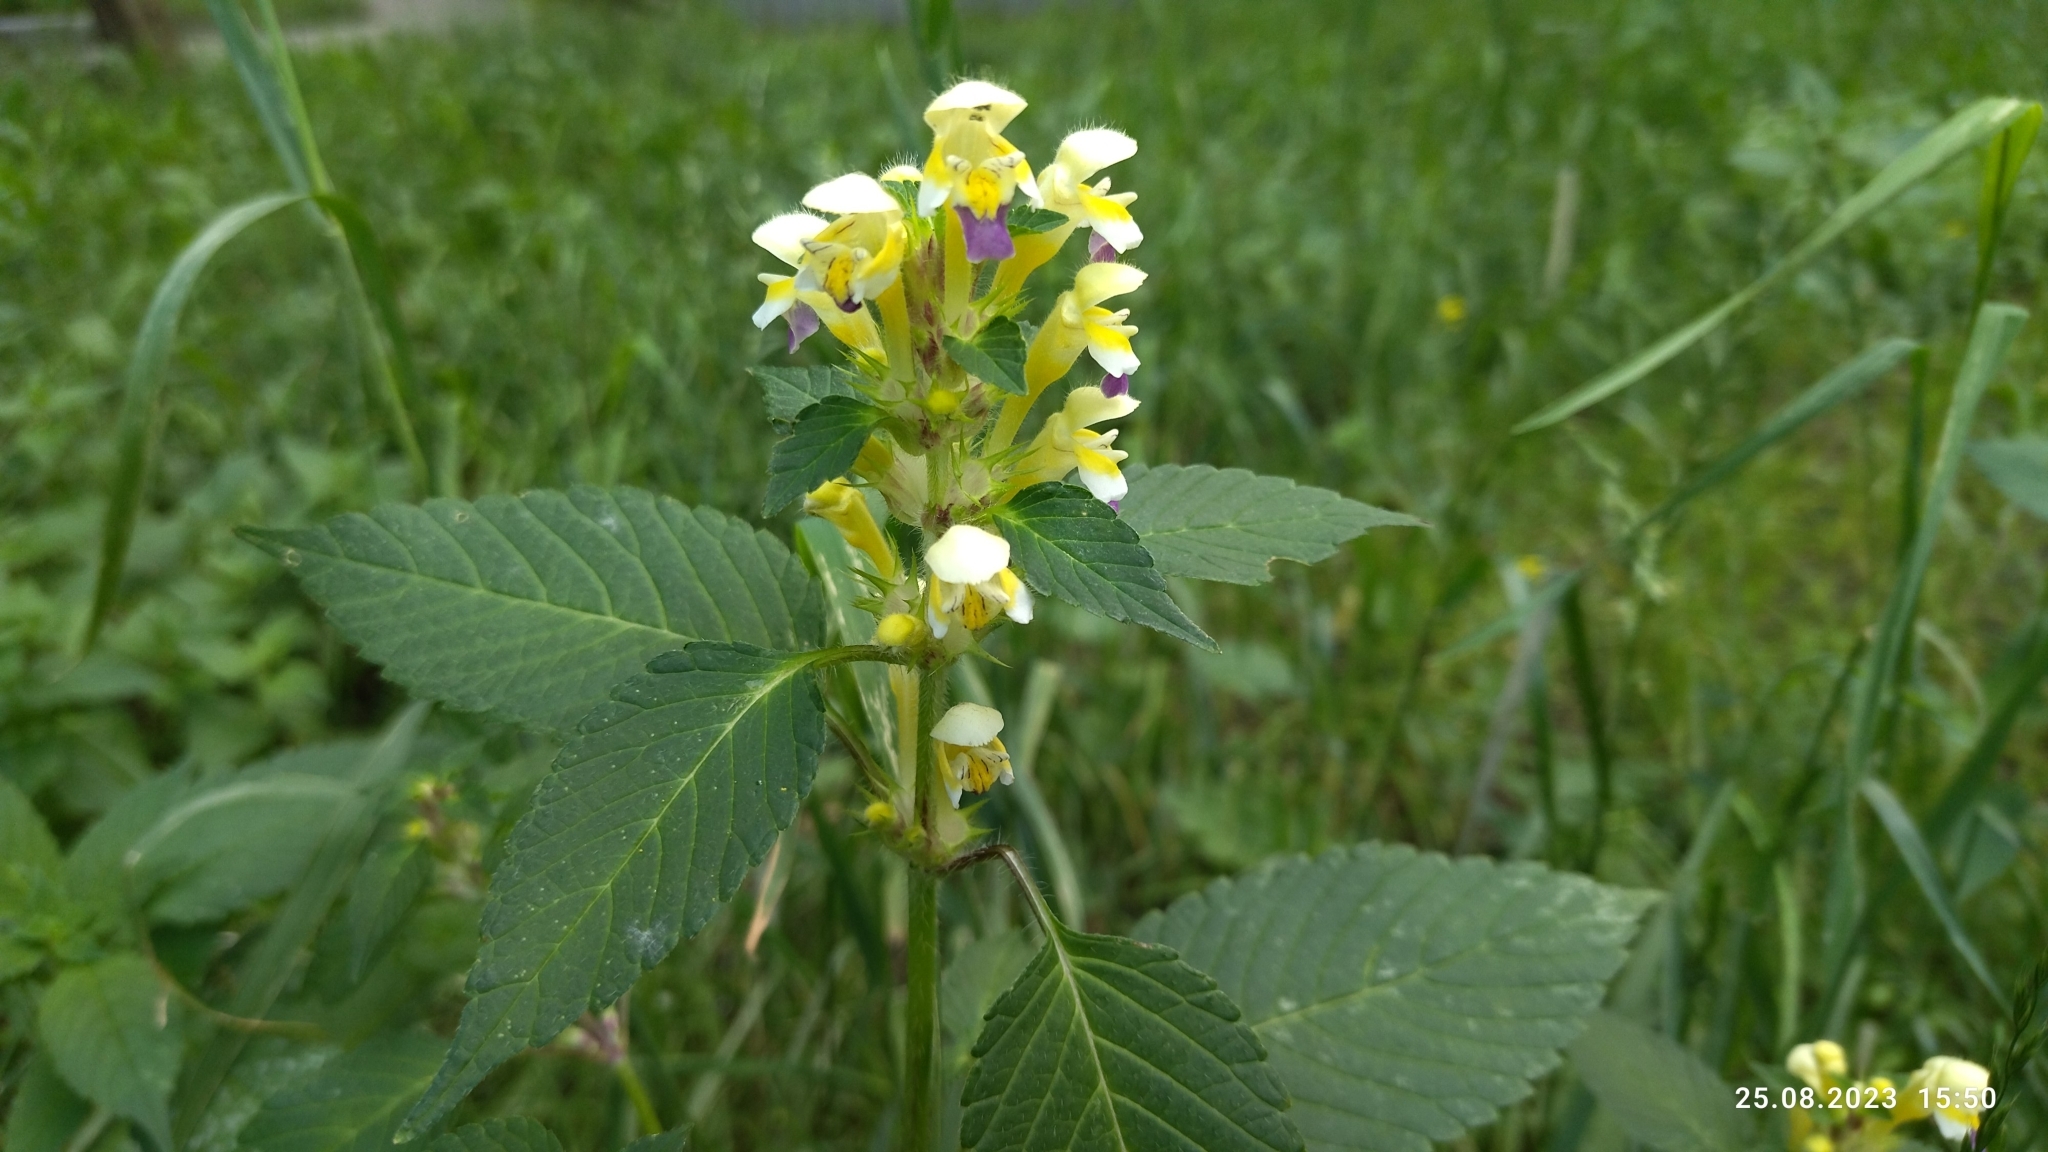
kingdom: Plantae
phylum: Tracheophyta
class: Magnoliopsida
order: Lamiales
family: Lamiaceae
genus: Galeopsis
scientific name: Galeopsis speciosa
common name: Large-flowered hemp-nettle
